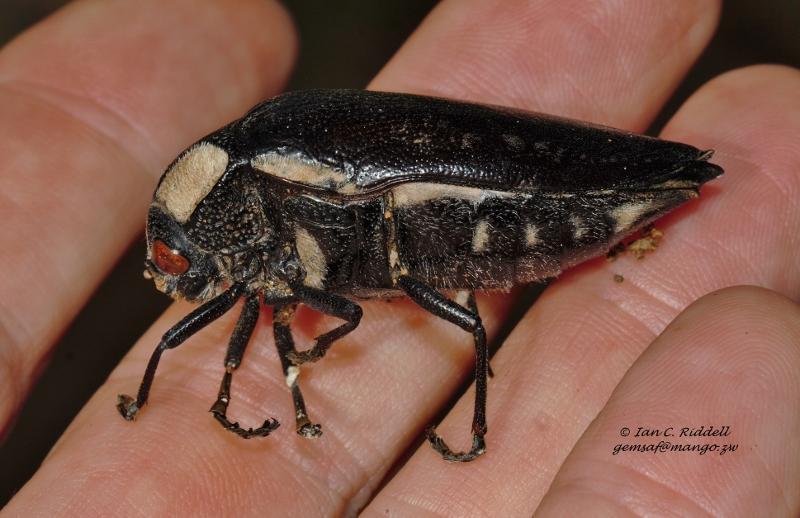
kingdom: Animalia
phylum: Arthropoda
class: Insecta
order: Coleoptera
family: Buprestidae
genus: Sternocera
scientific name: Sternocera orissa
